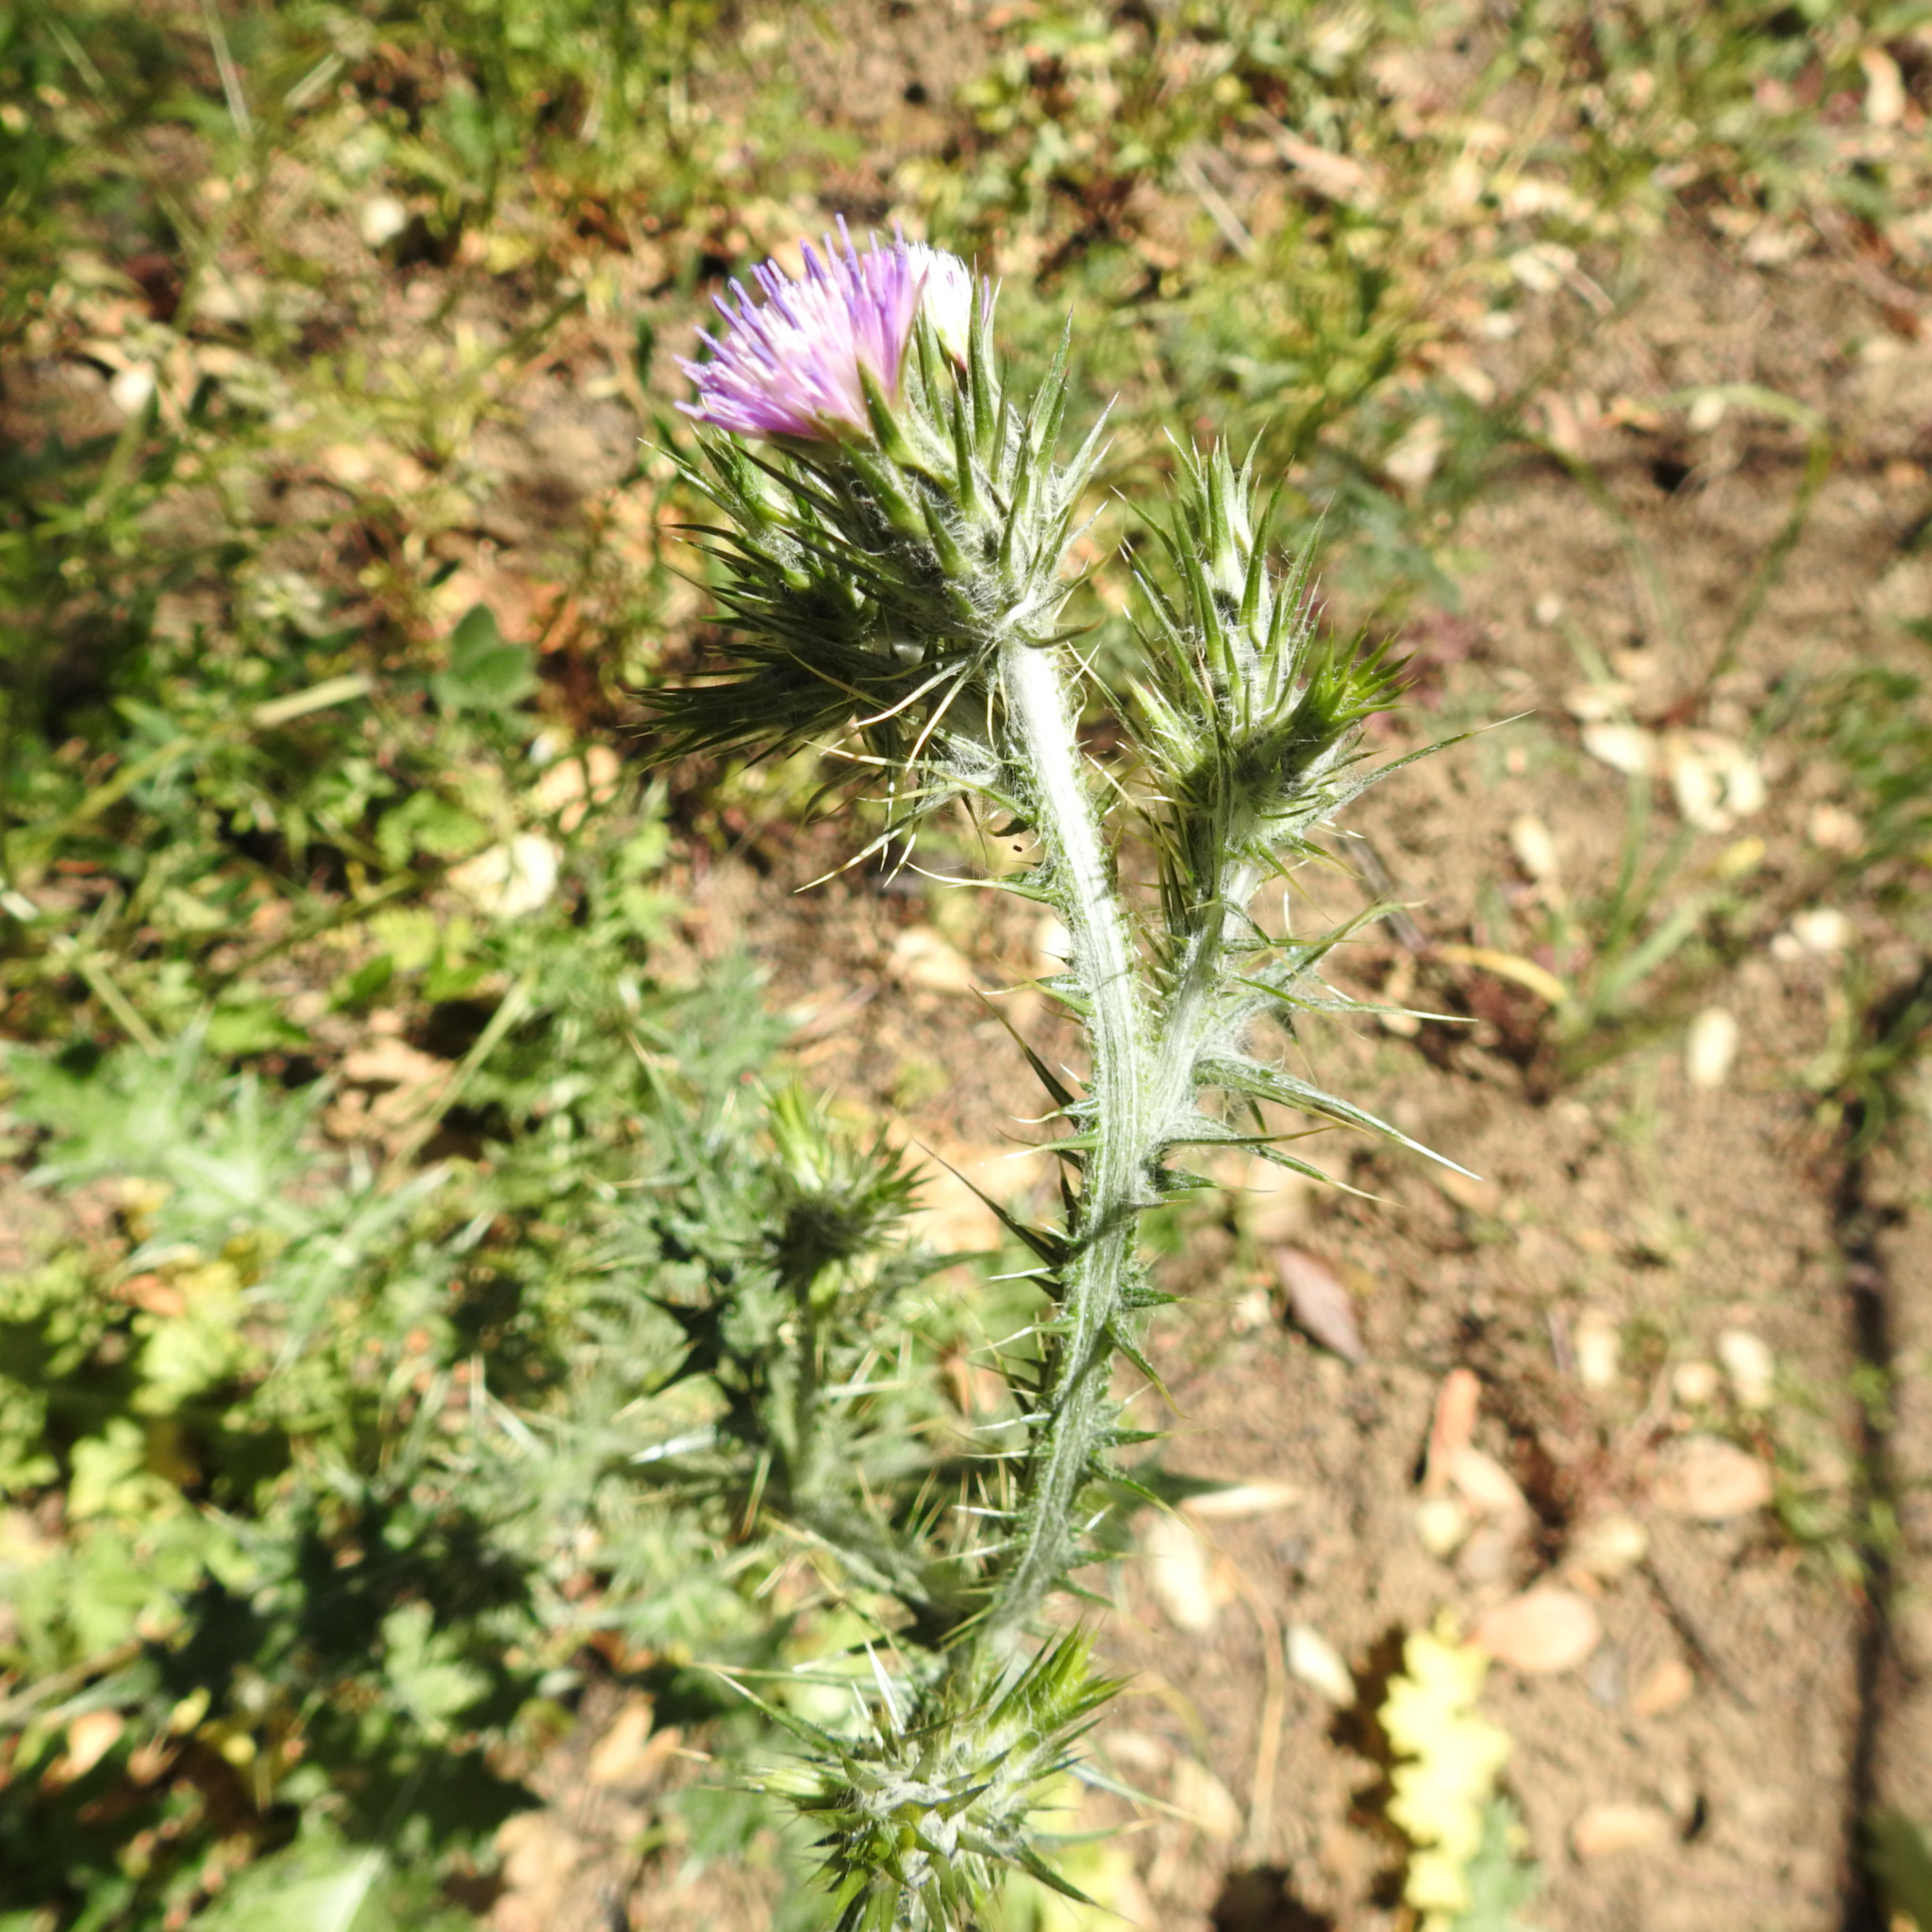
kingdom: Plantae
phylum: Tracheophyta
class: Magnoliopsida
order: Asterales
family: Asteraceae
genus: Carduus
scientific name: Carduus pycnocephalus
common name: Plymouth thistle
